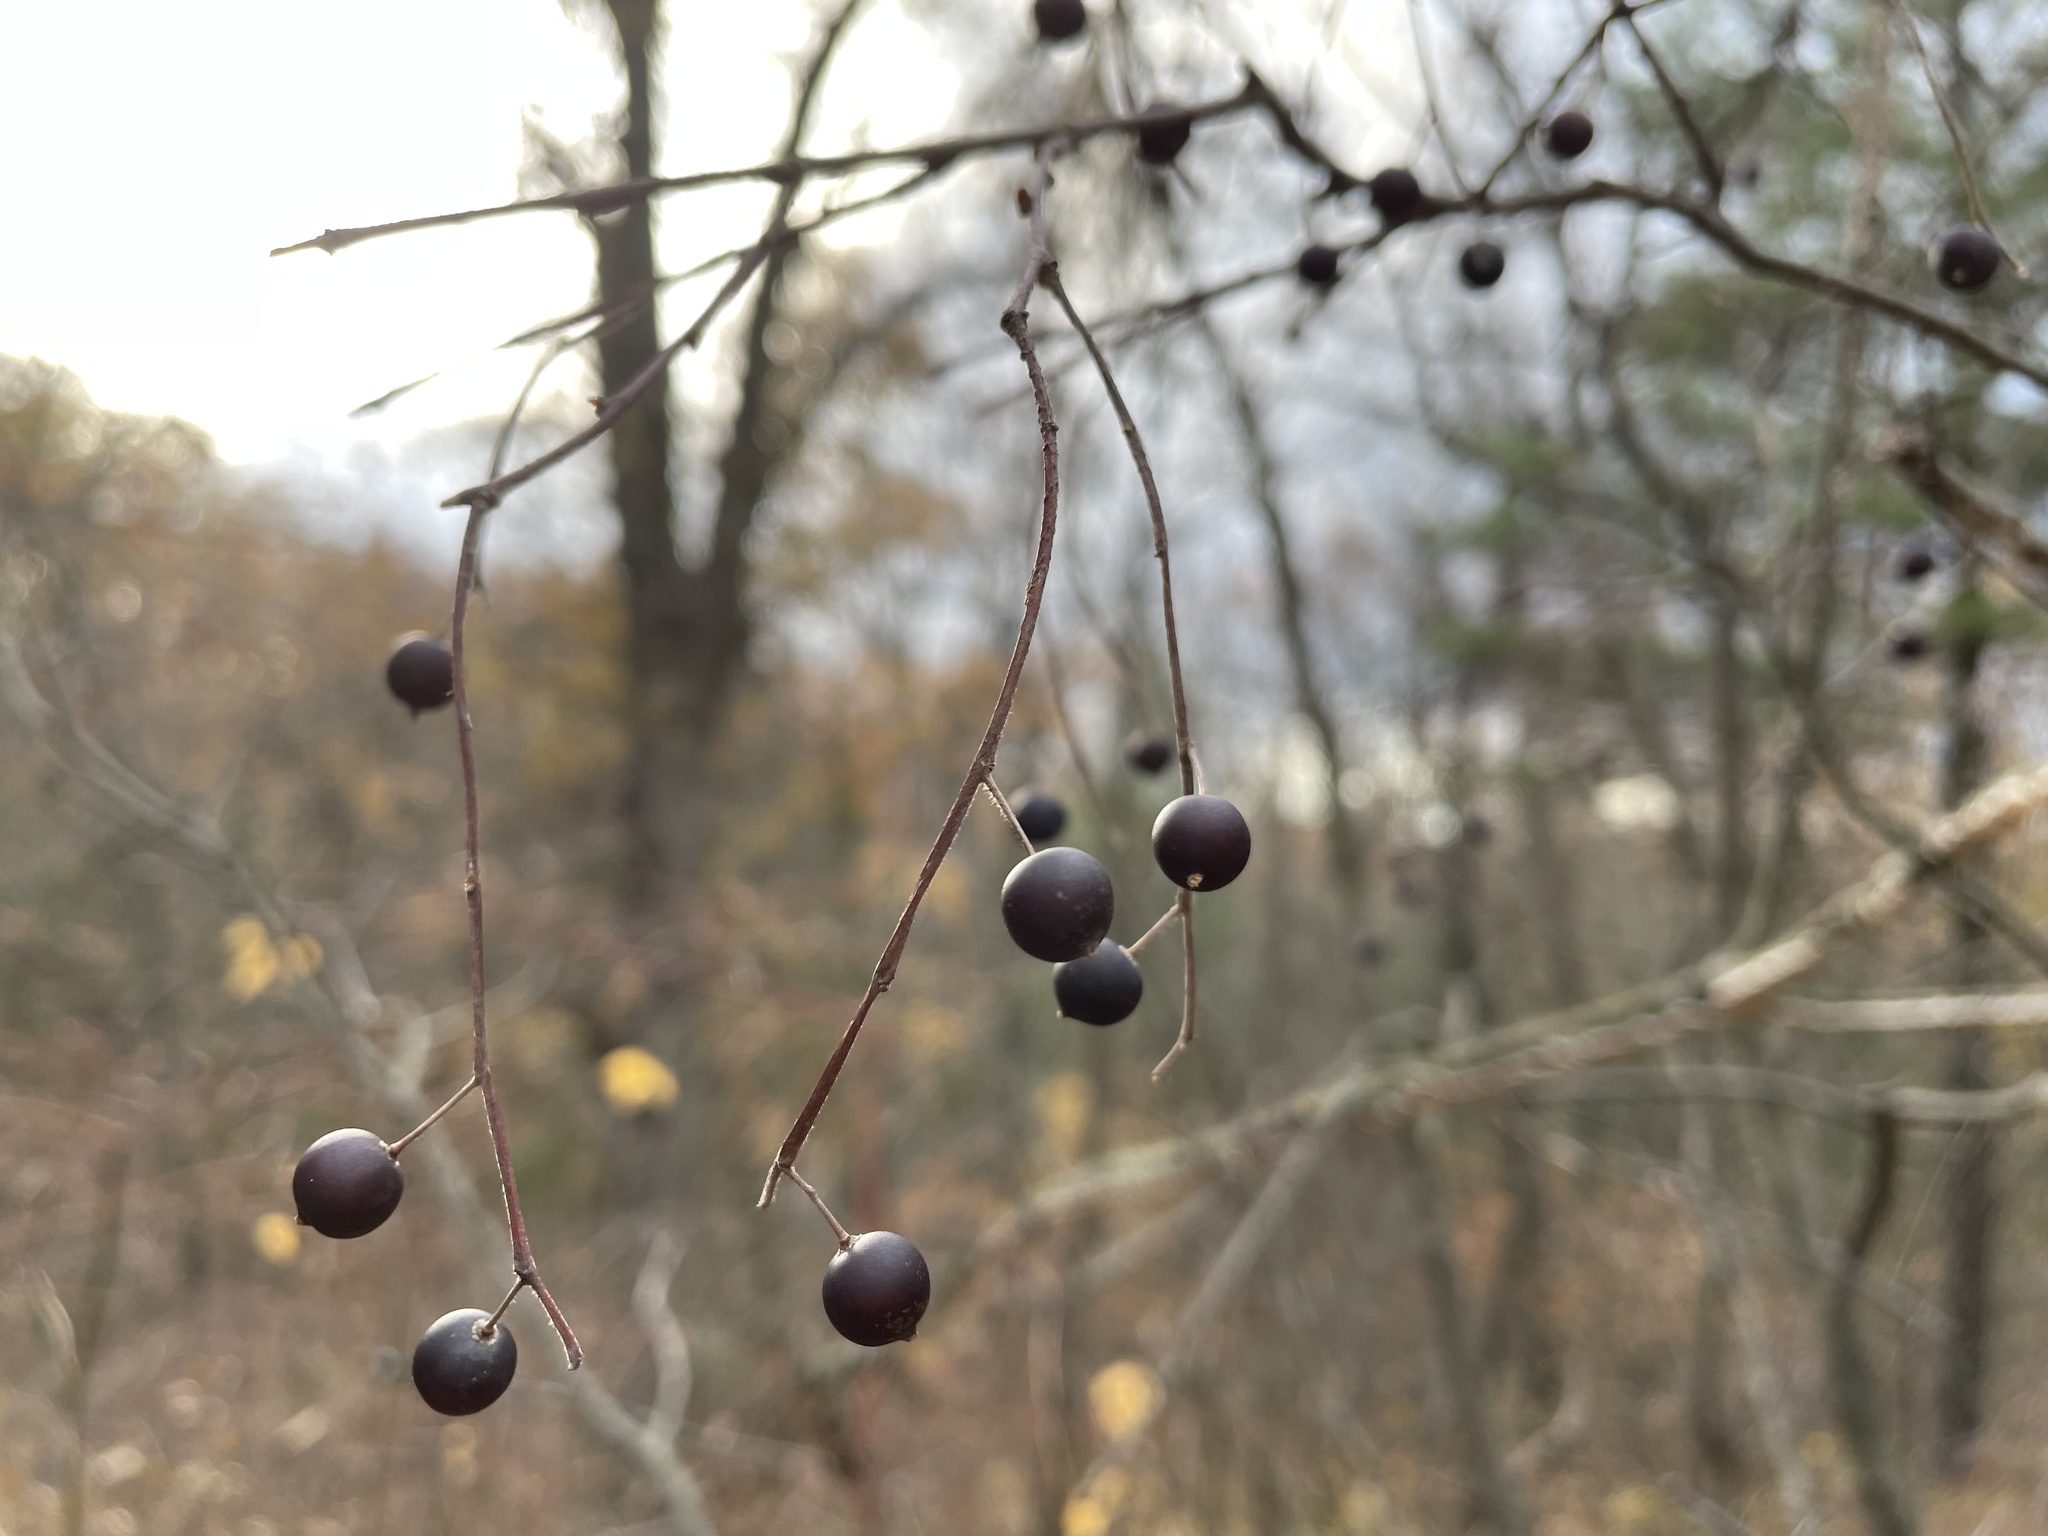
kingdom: Plantae
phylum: Tracheophyta
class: Magnoliopsida
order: Rosales
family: Cannabaceae
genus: Celtis
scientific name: Celtis tenuifolia
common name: Georgia hackberry
